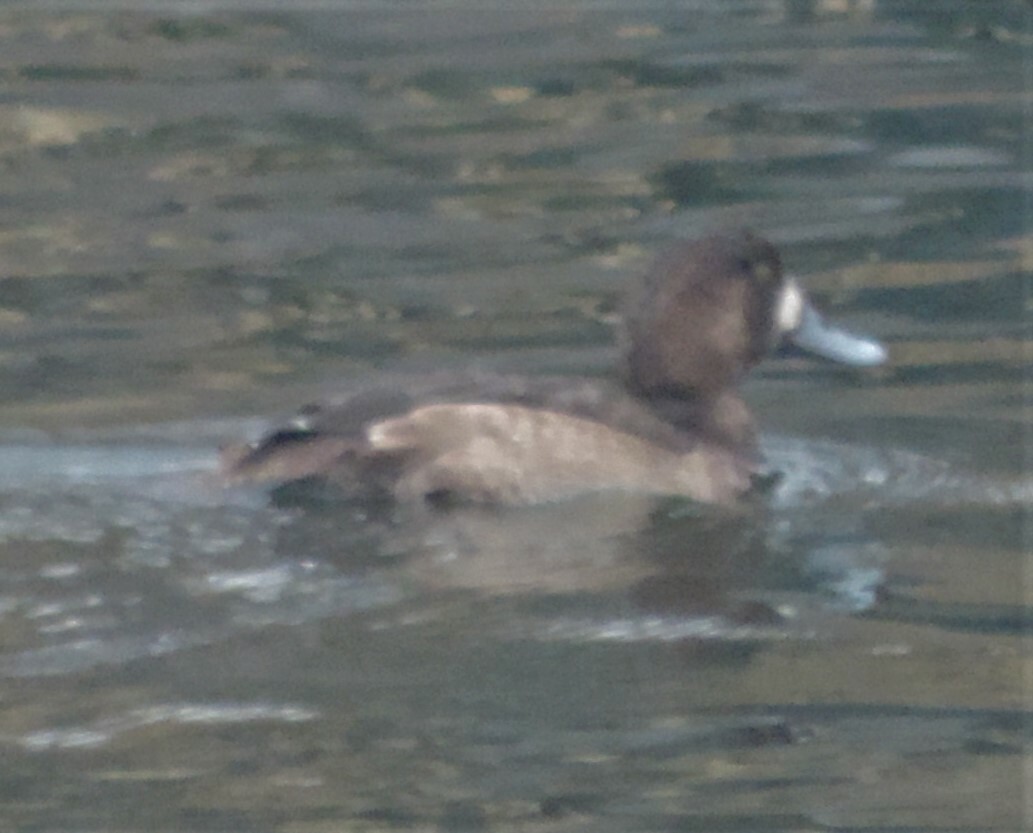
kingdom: Animalia
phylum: Chordata
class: Aves
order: Anseriformes
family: Anatidae
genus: Aythya
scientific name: Aythya marila
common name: Greater scaup
